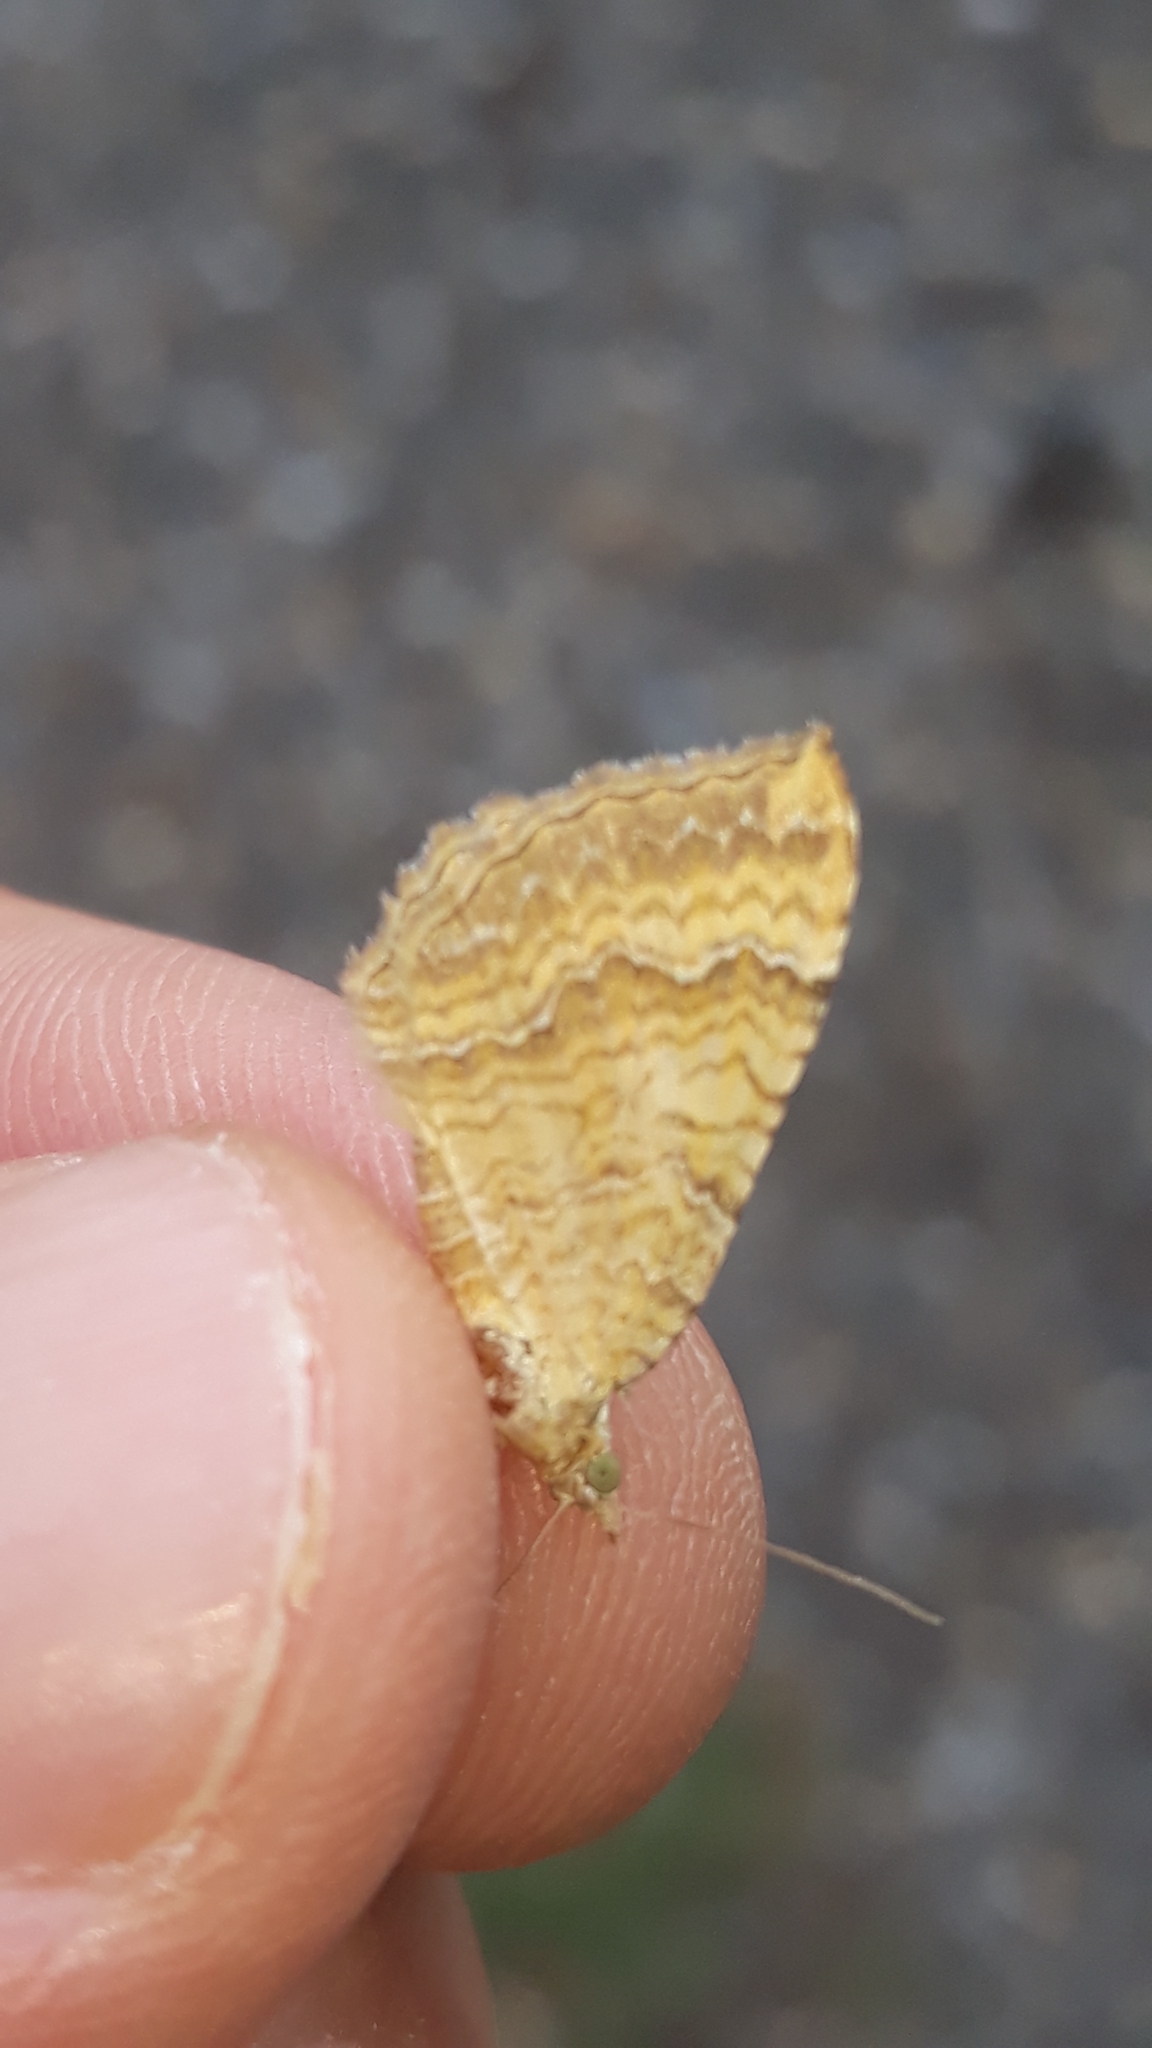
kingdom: Animalia
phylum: Arthropoda
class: Insecta
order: Lepidoptera
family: Geometridae
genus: Camptogramma
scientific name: Camptogramma bilineata
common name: Yellow shell
